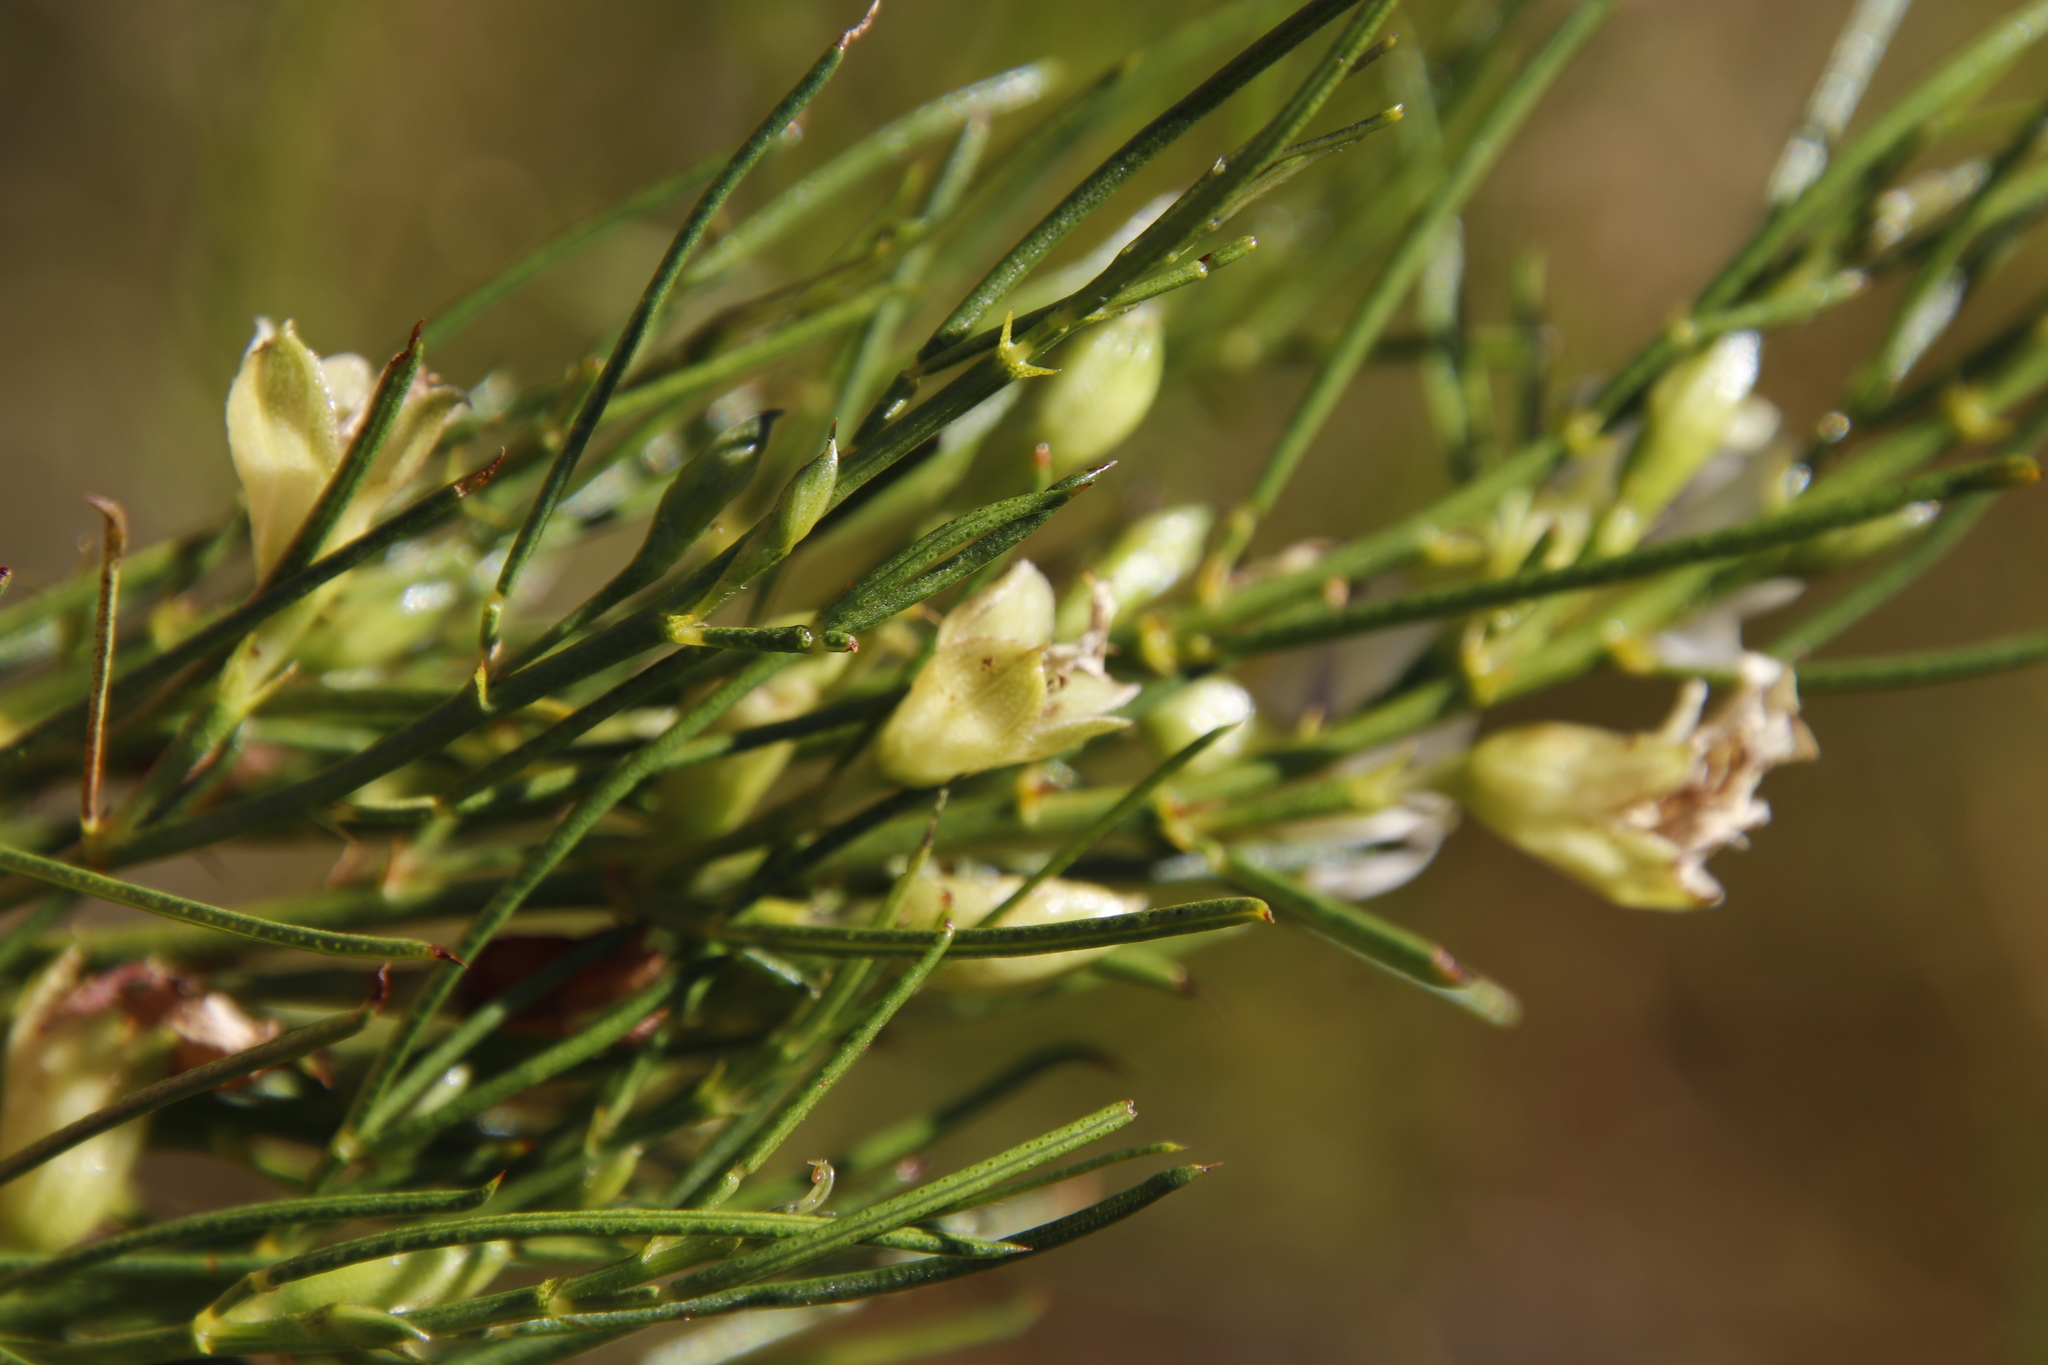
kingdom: Plantae
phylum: Tracheophyta
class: Magnoliopsida
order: Fabales
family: Fabaceae
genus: Psoralea
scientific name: Psoralea
